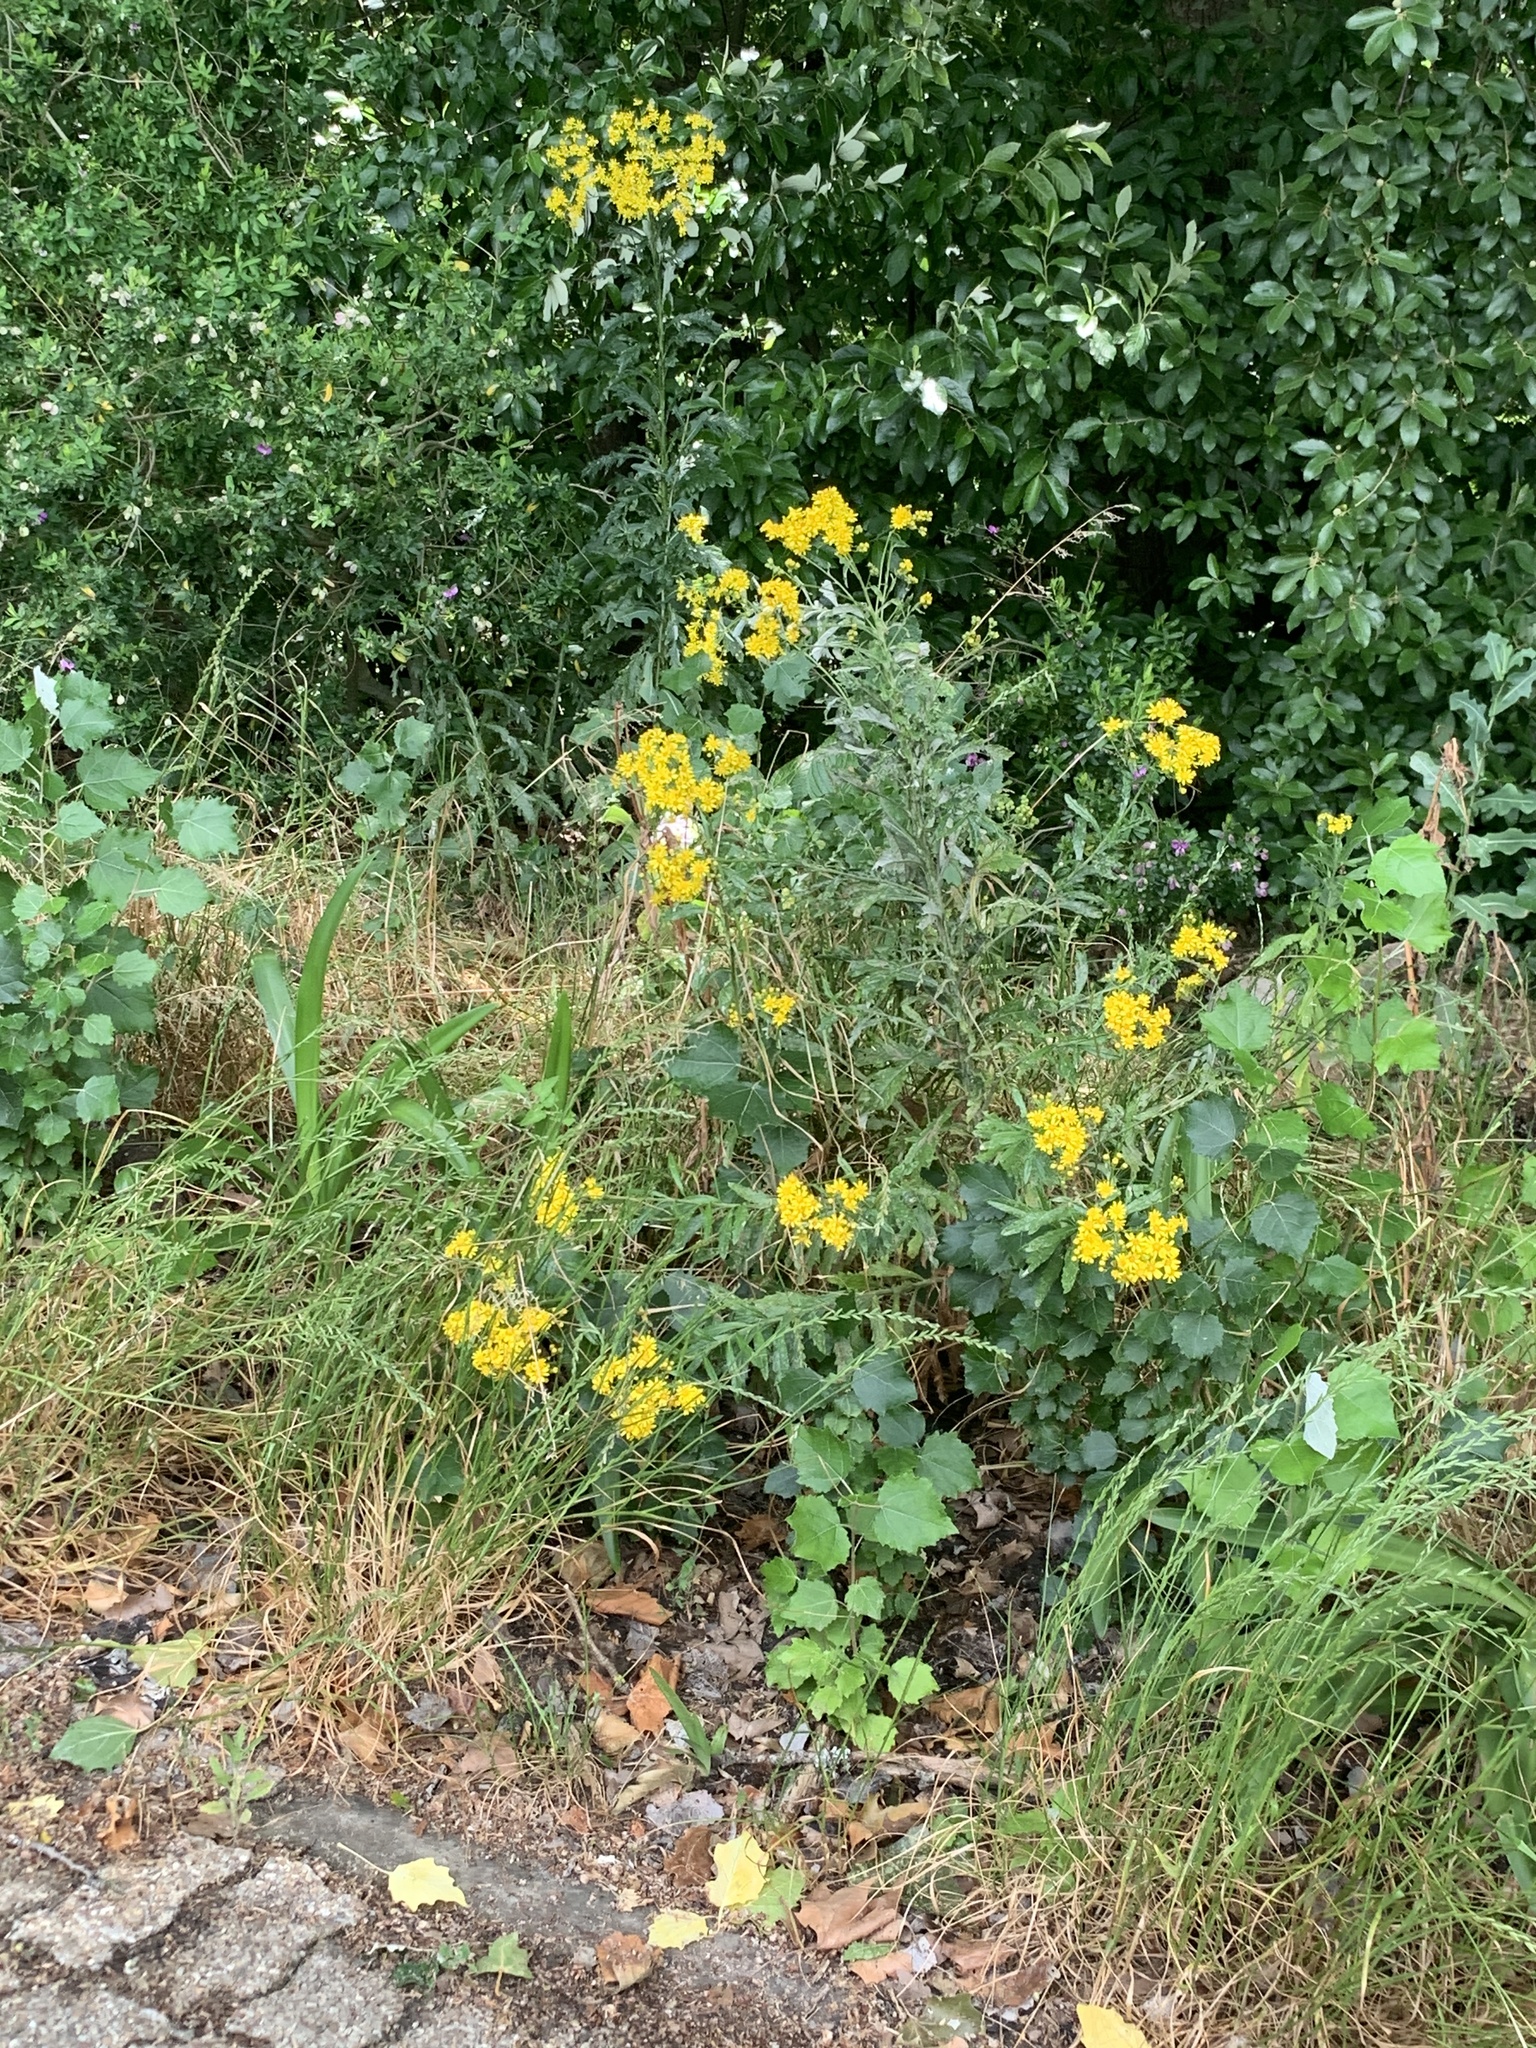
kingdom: Plantae
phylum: Tracheophyta
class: Magnoliopsida
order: Asterales
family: Asteraceae
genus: Senecio
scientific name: Senecio pterophorus
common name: Shoddy ragwort
